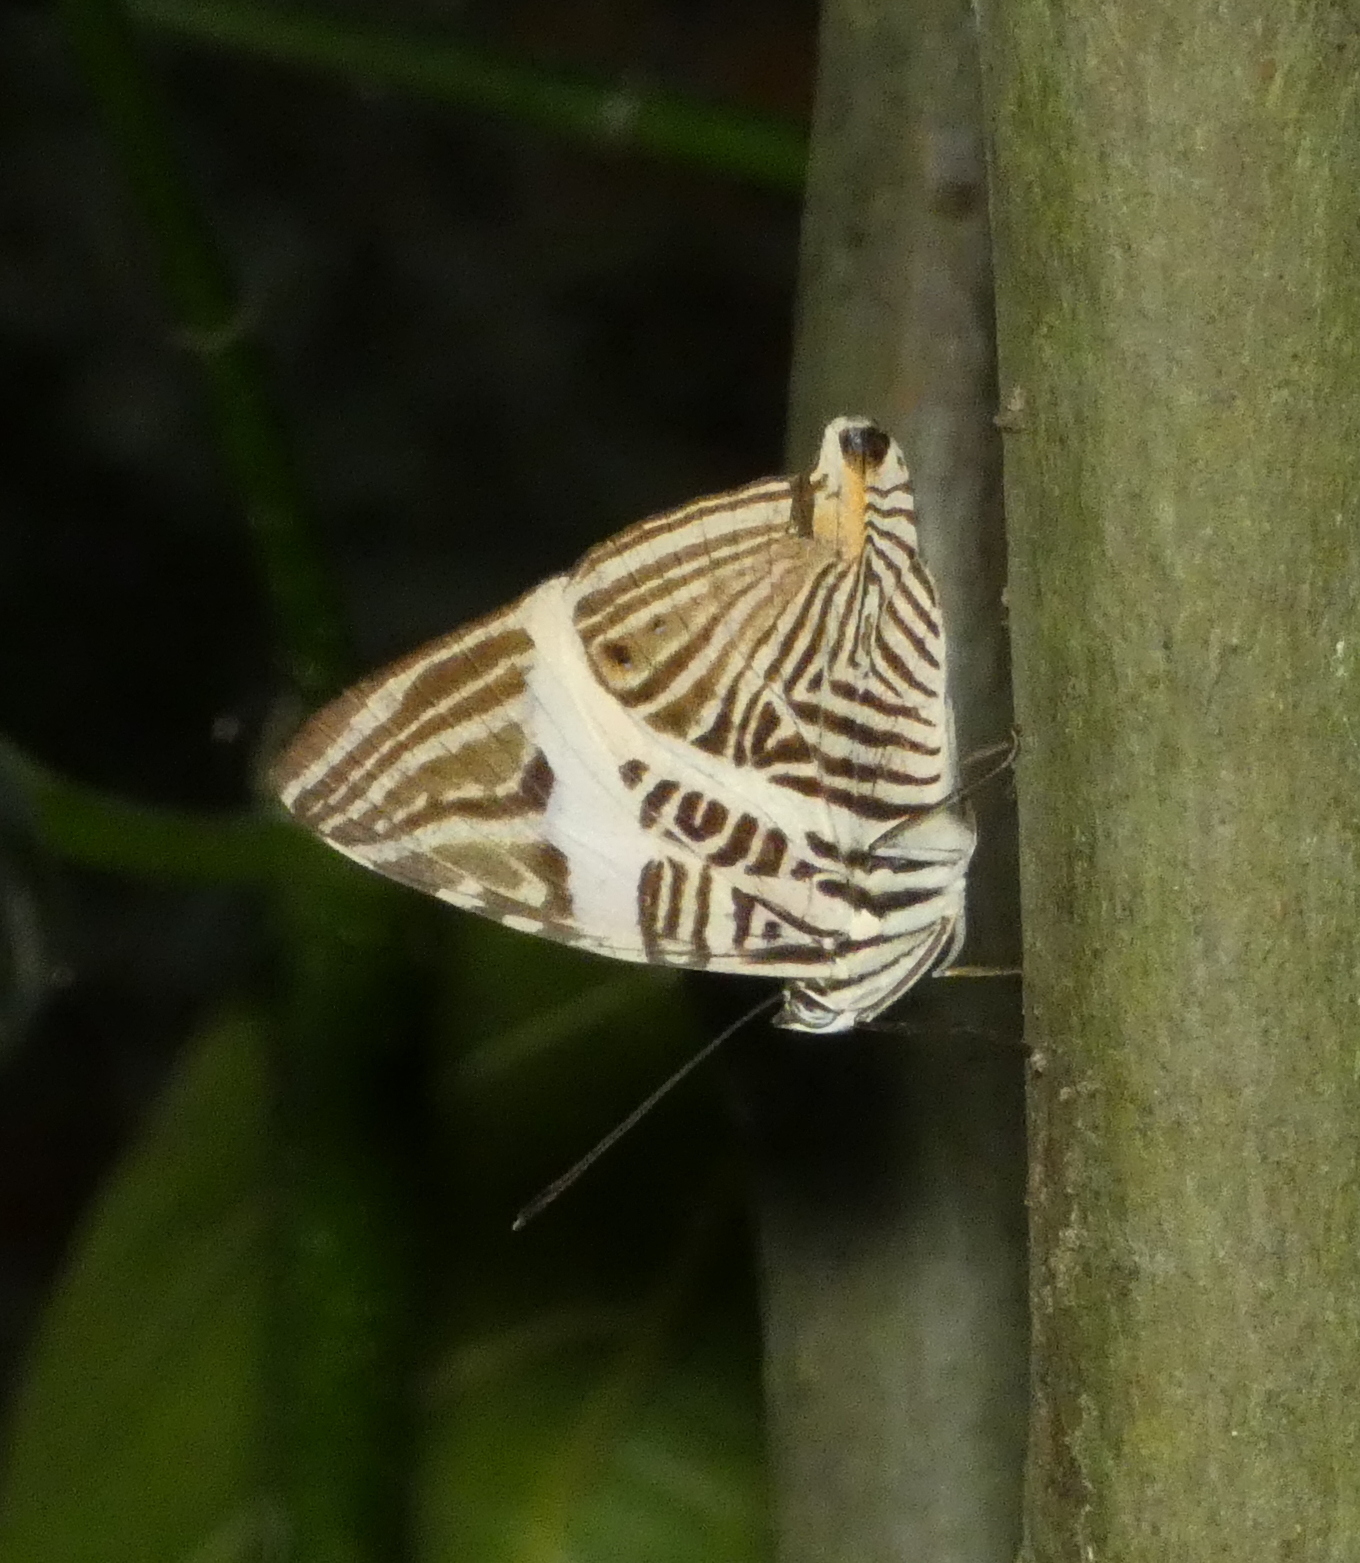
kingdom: Animalia
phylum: Arthropoda
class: Insecta
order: Lepidoptera
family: Nymphalidae
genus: Colobura
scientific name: Colobura dirce
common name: Dirce beauty
